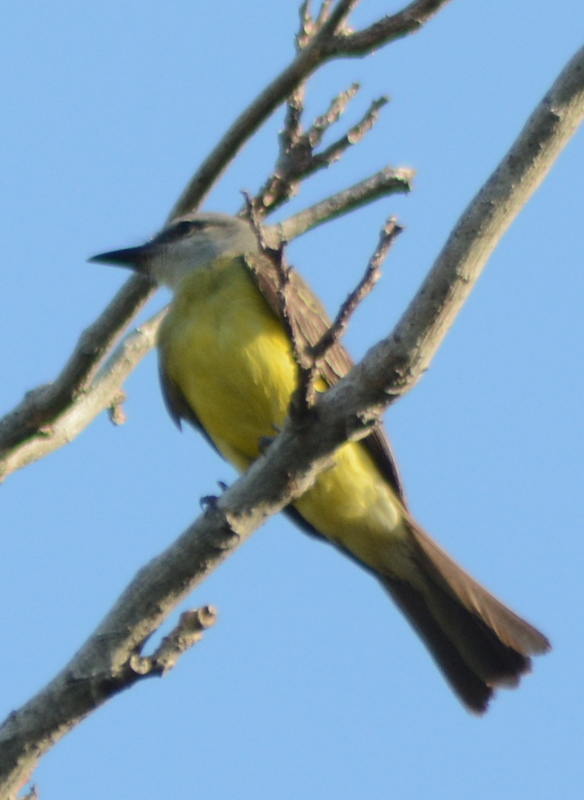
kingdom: Animalia
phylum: Chordata
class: Aves
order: Passeriformes
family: Tyrannidae
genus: Tyrannus
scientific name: Tyrannus melancholicus
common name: Tropical kingbird
